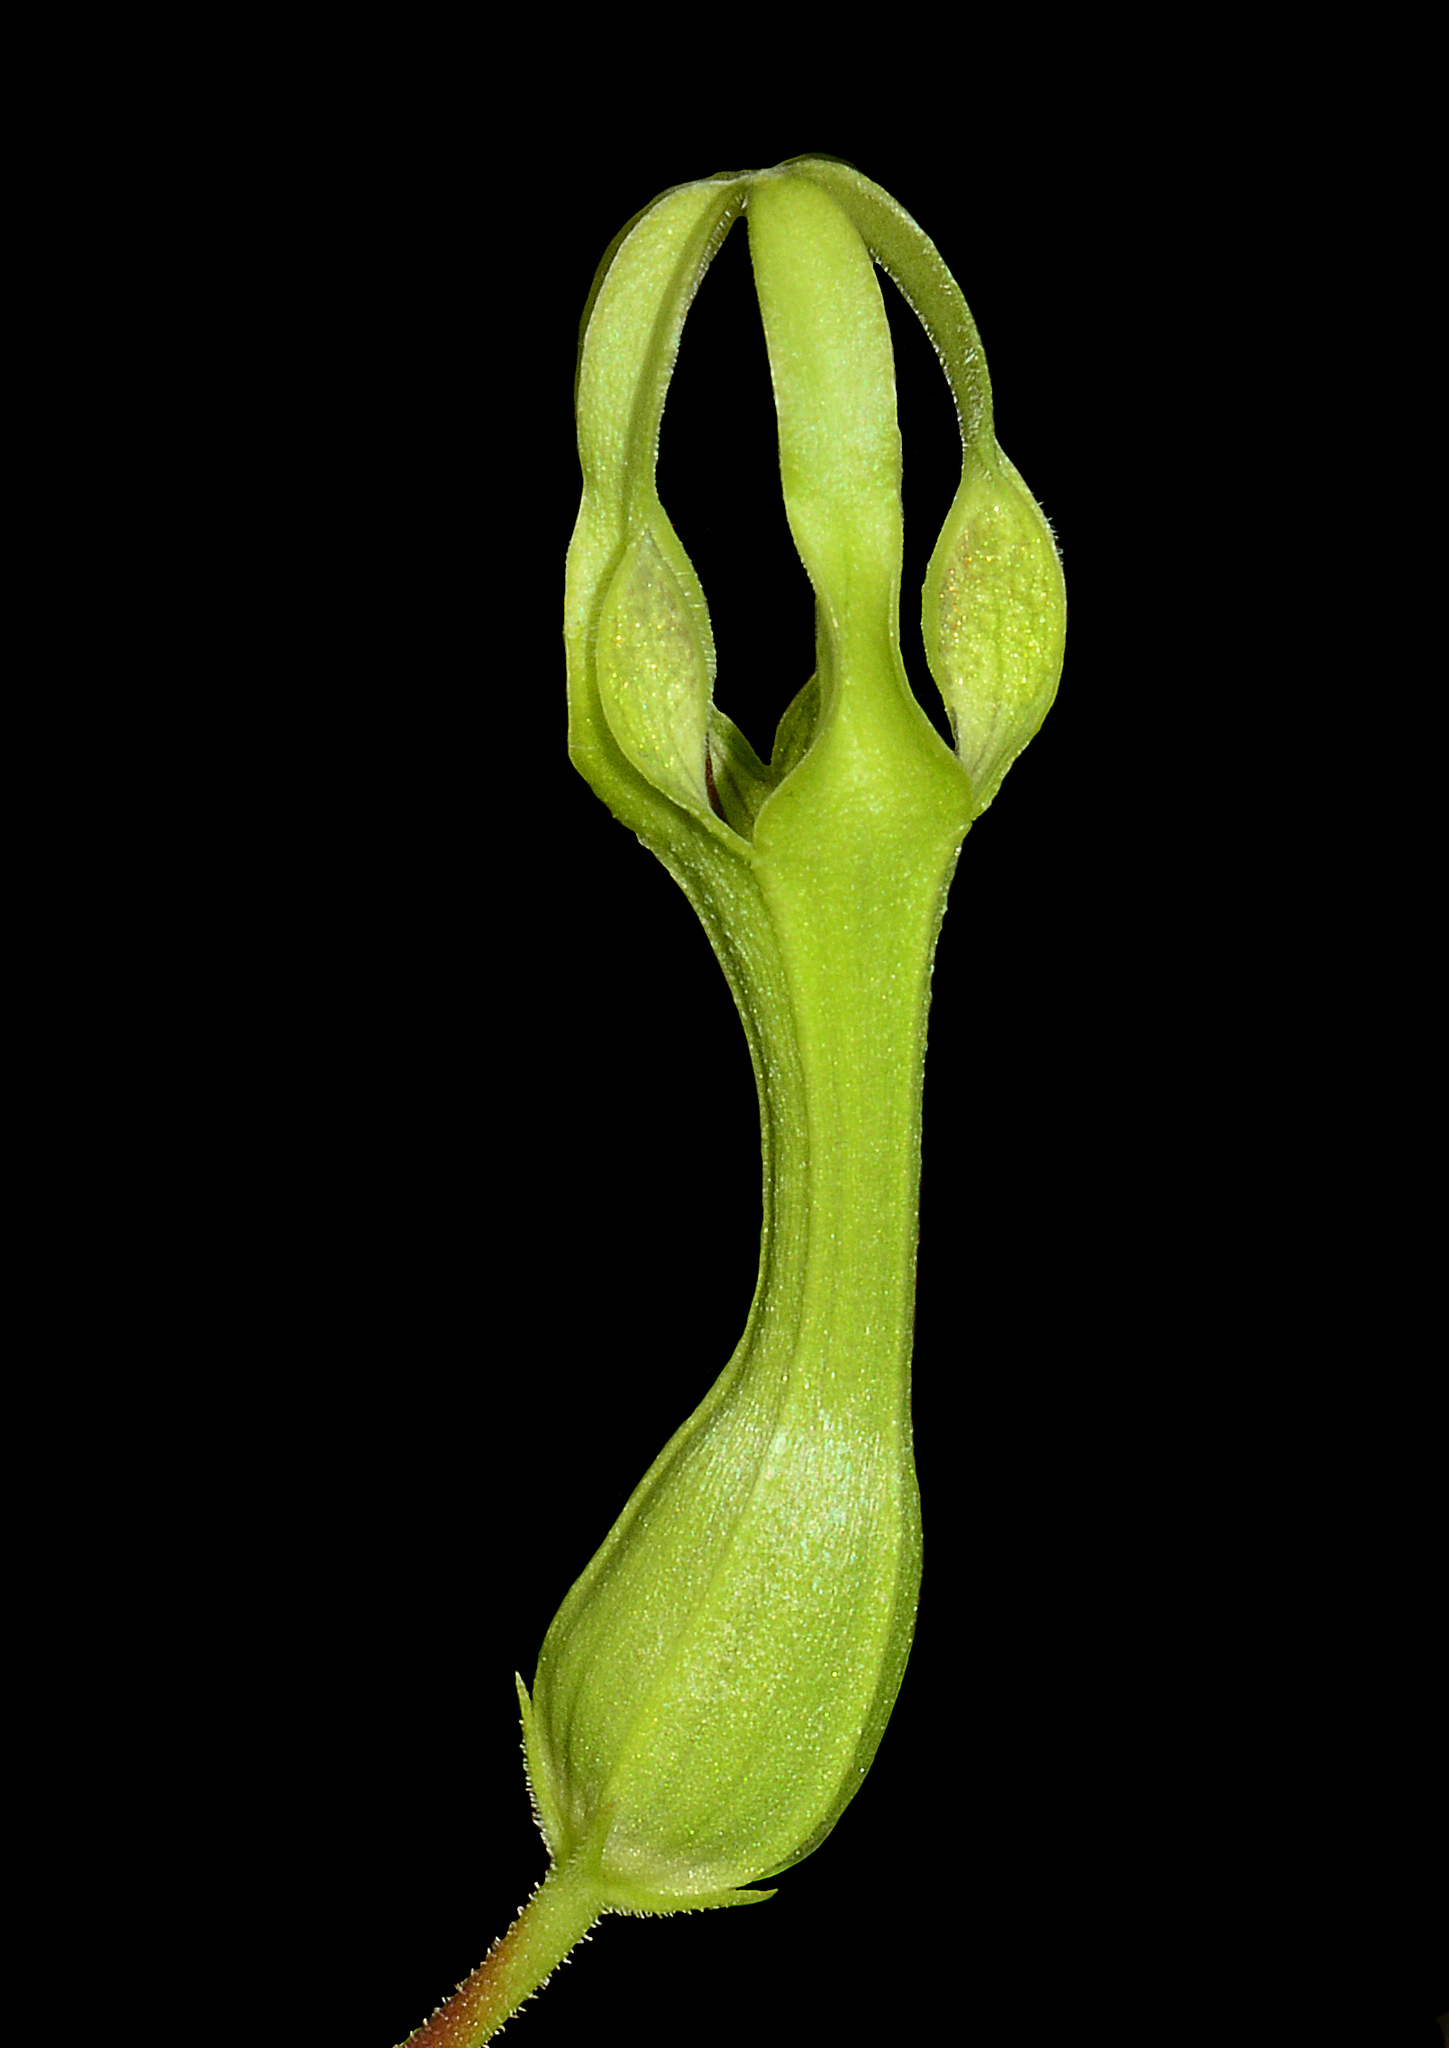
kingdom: Plantae
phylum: Tracheophyta
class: Magnoliopsida
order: Gentianales
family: Apocynaceae
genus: Ceropegia
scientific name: Ceropegia attenuata
